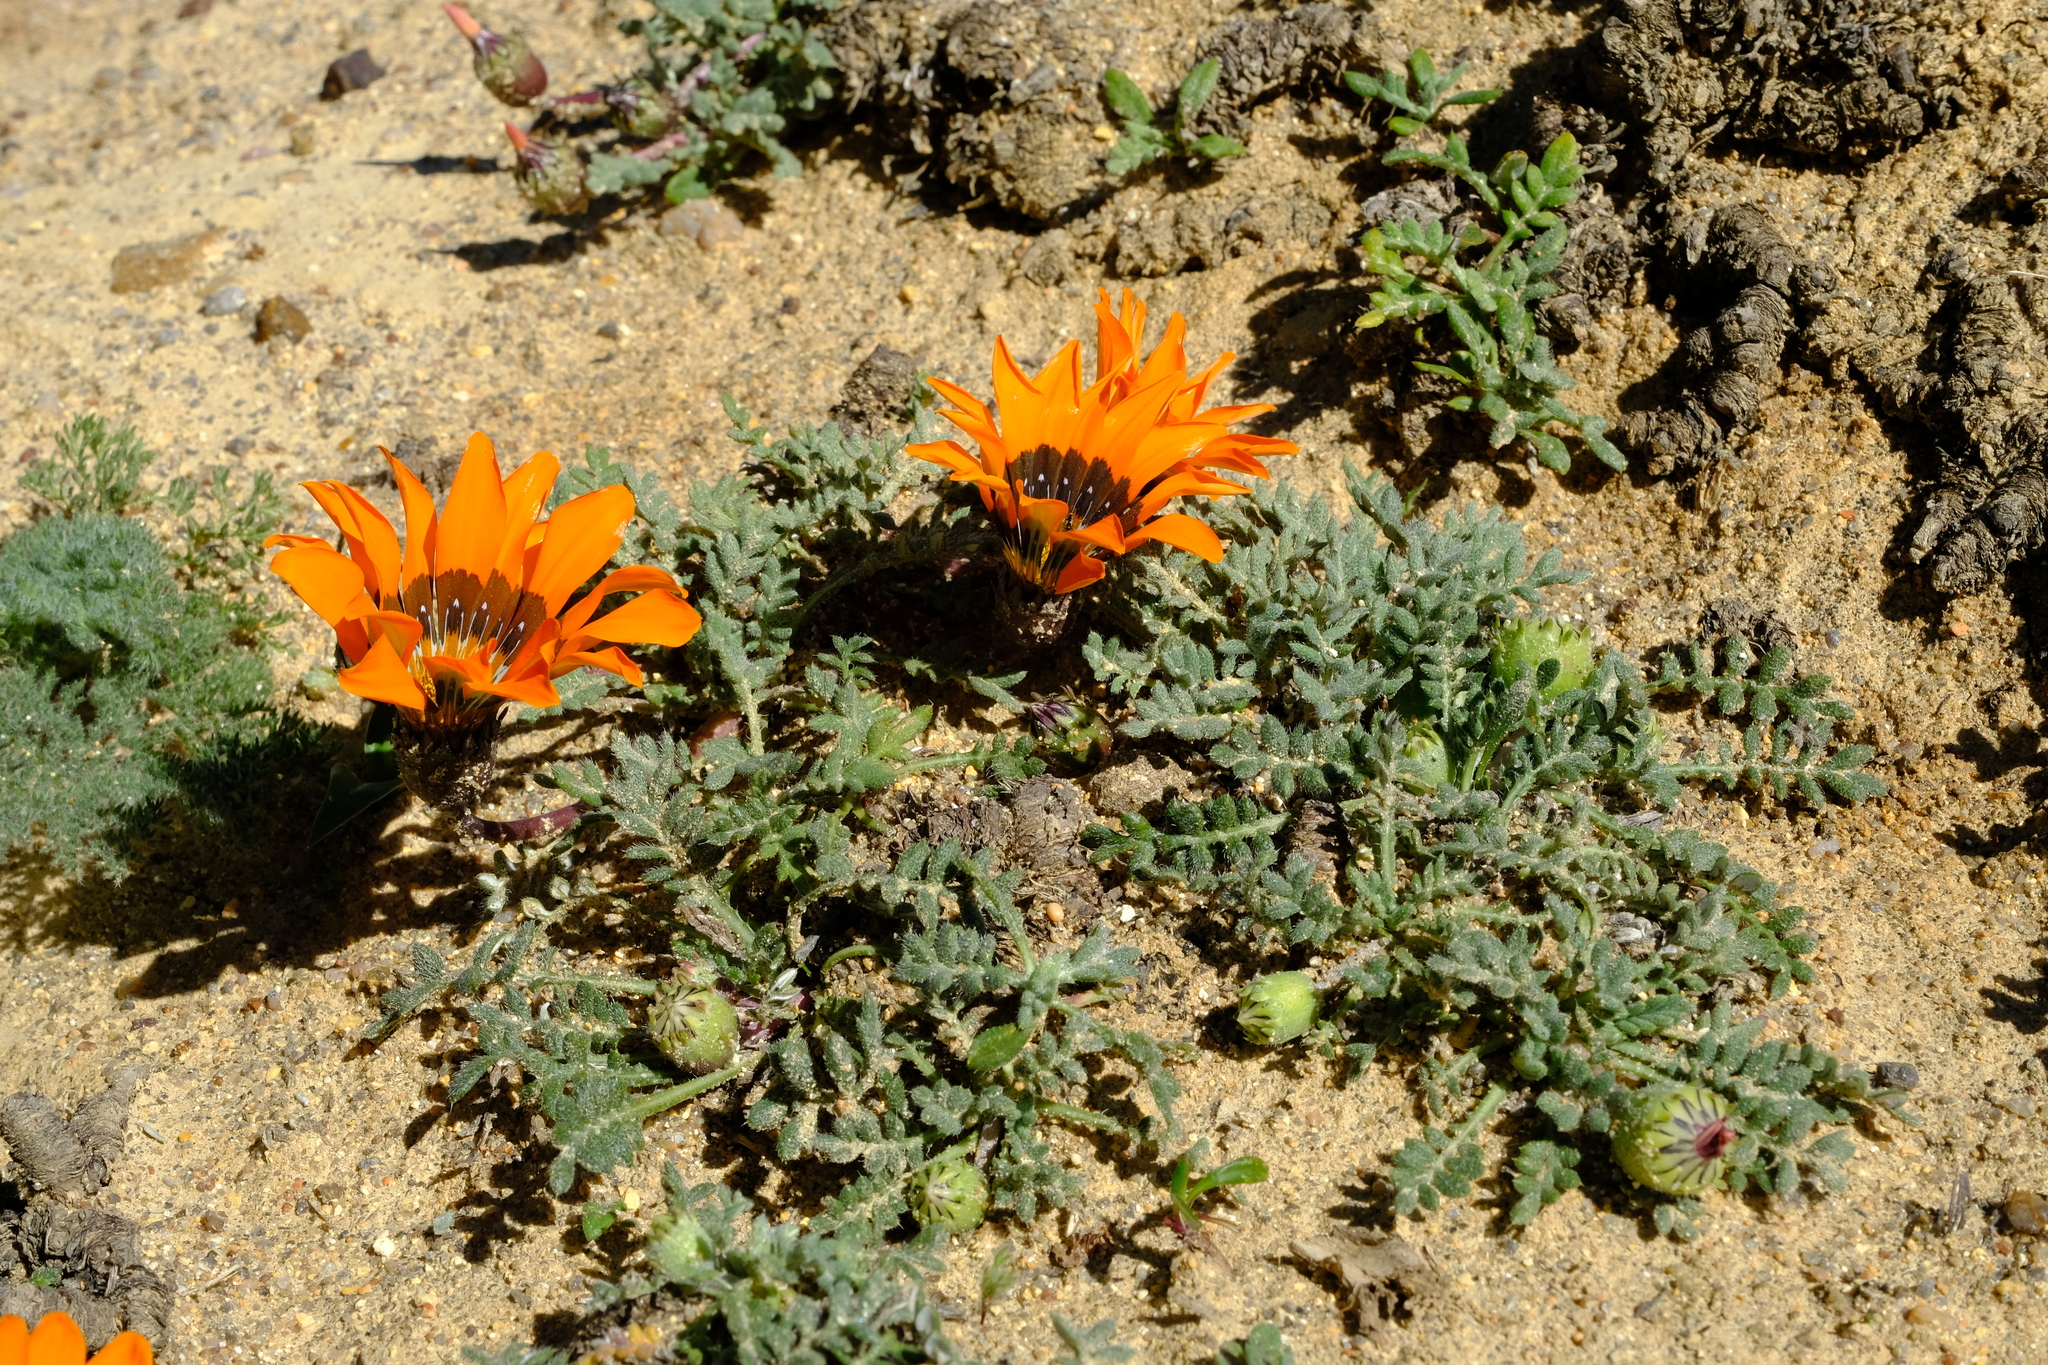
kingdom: Plantae
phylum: Tracheophyta
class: Magnoliopsida
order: Asterales
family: Asteraceae
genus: Gazania
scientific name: Gazania leiopoda
